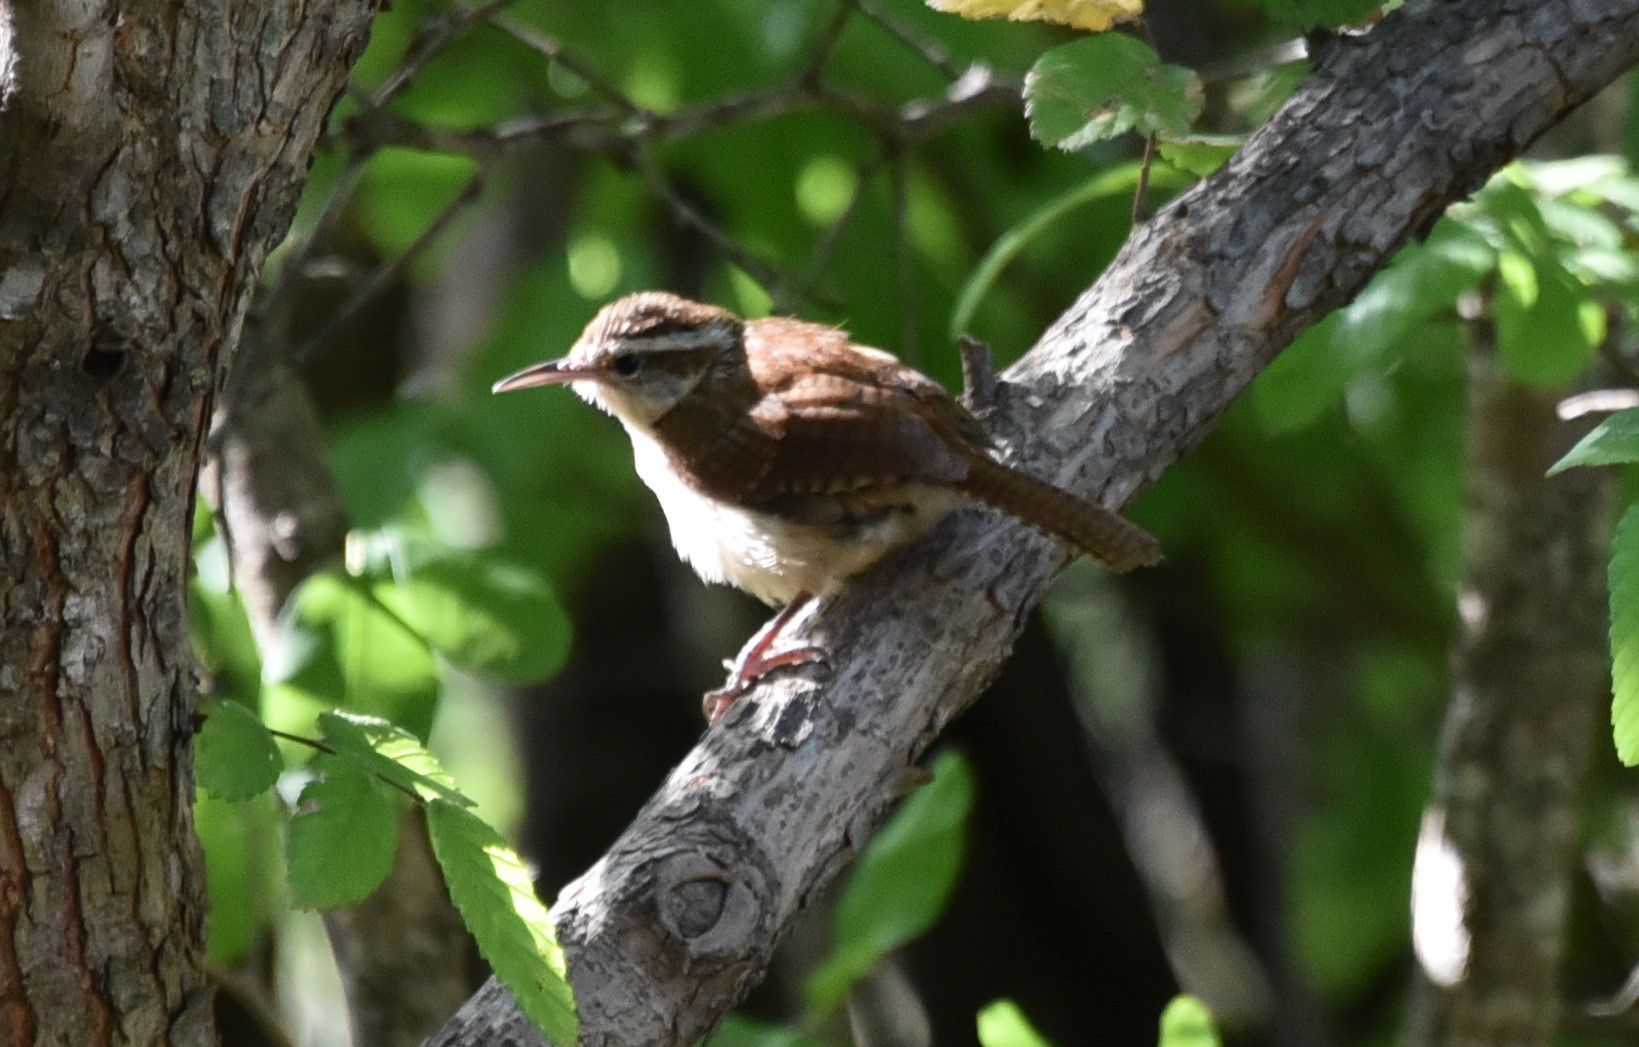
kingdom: Animalia
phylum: Chordata
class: Aves
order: Passeriformes
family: Troglodytidae
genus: Thryothorus
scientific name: Thryothorus ludovicianus
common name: Carolina wren
